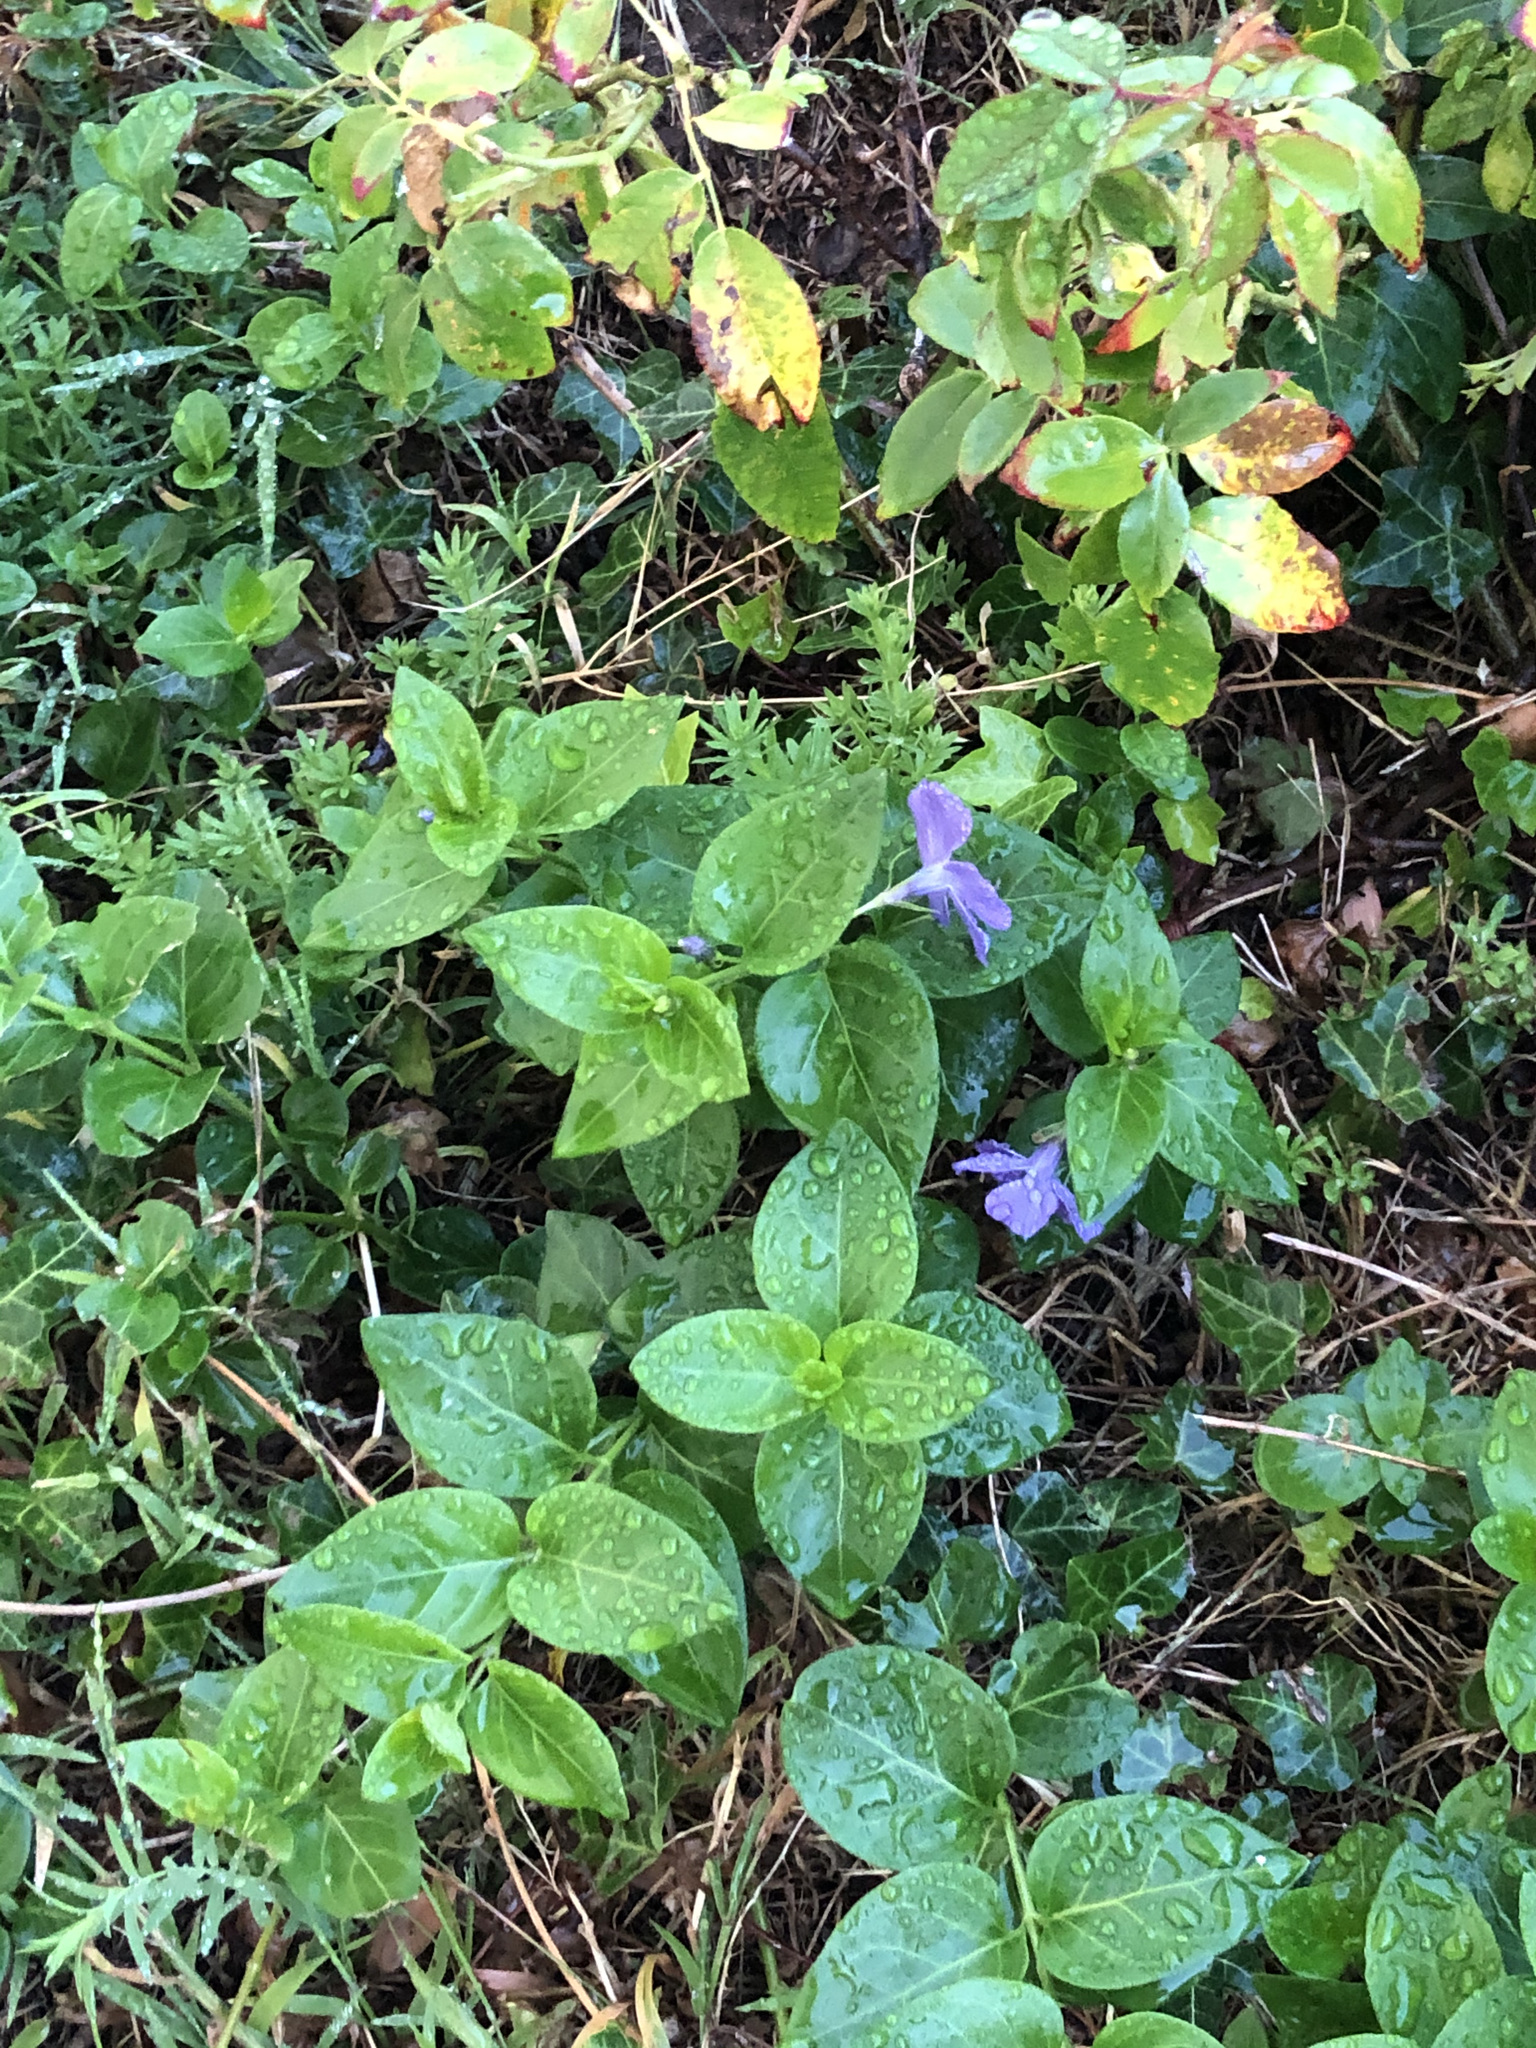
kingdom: Plantae
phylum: Tracheophyta
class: Magnoliopsida
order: Gentianales
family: Apocynaceae
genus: Vinca
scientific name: Vinca major
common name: Greater periwinkle
